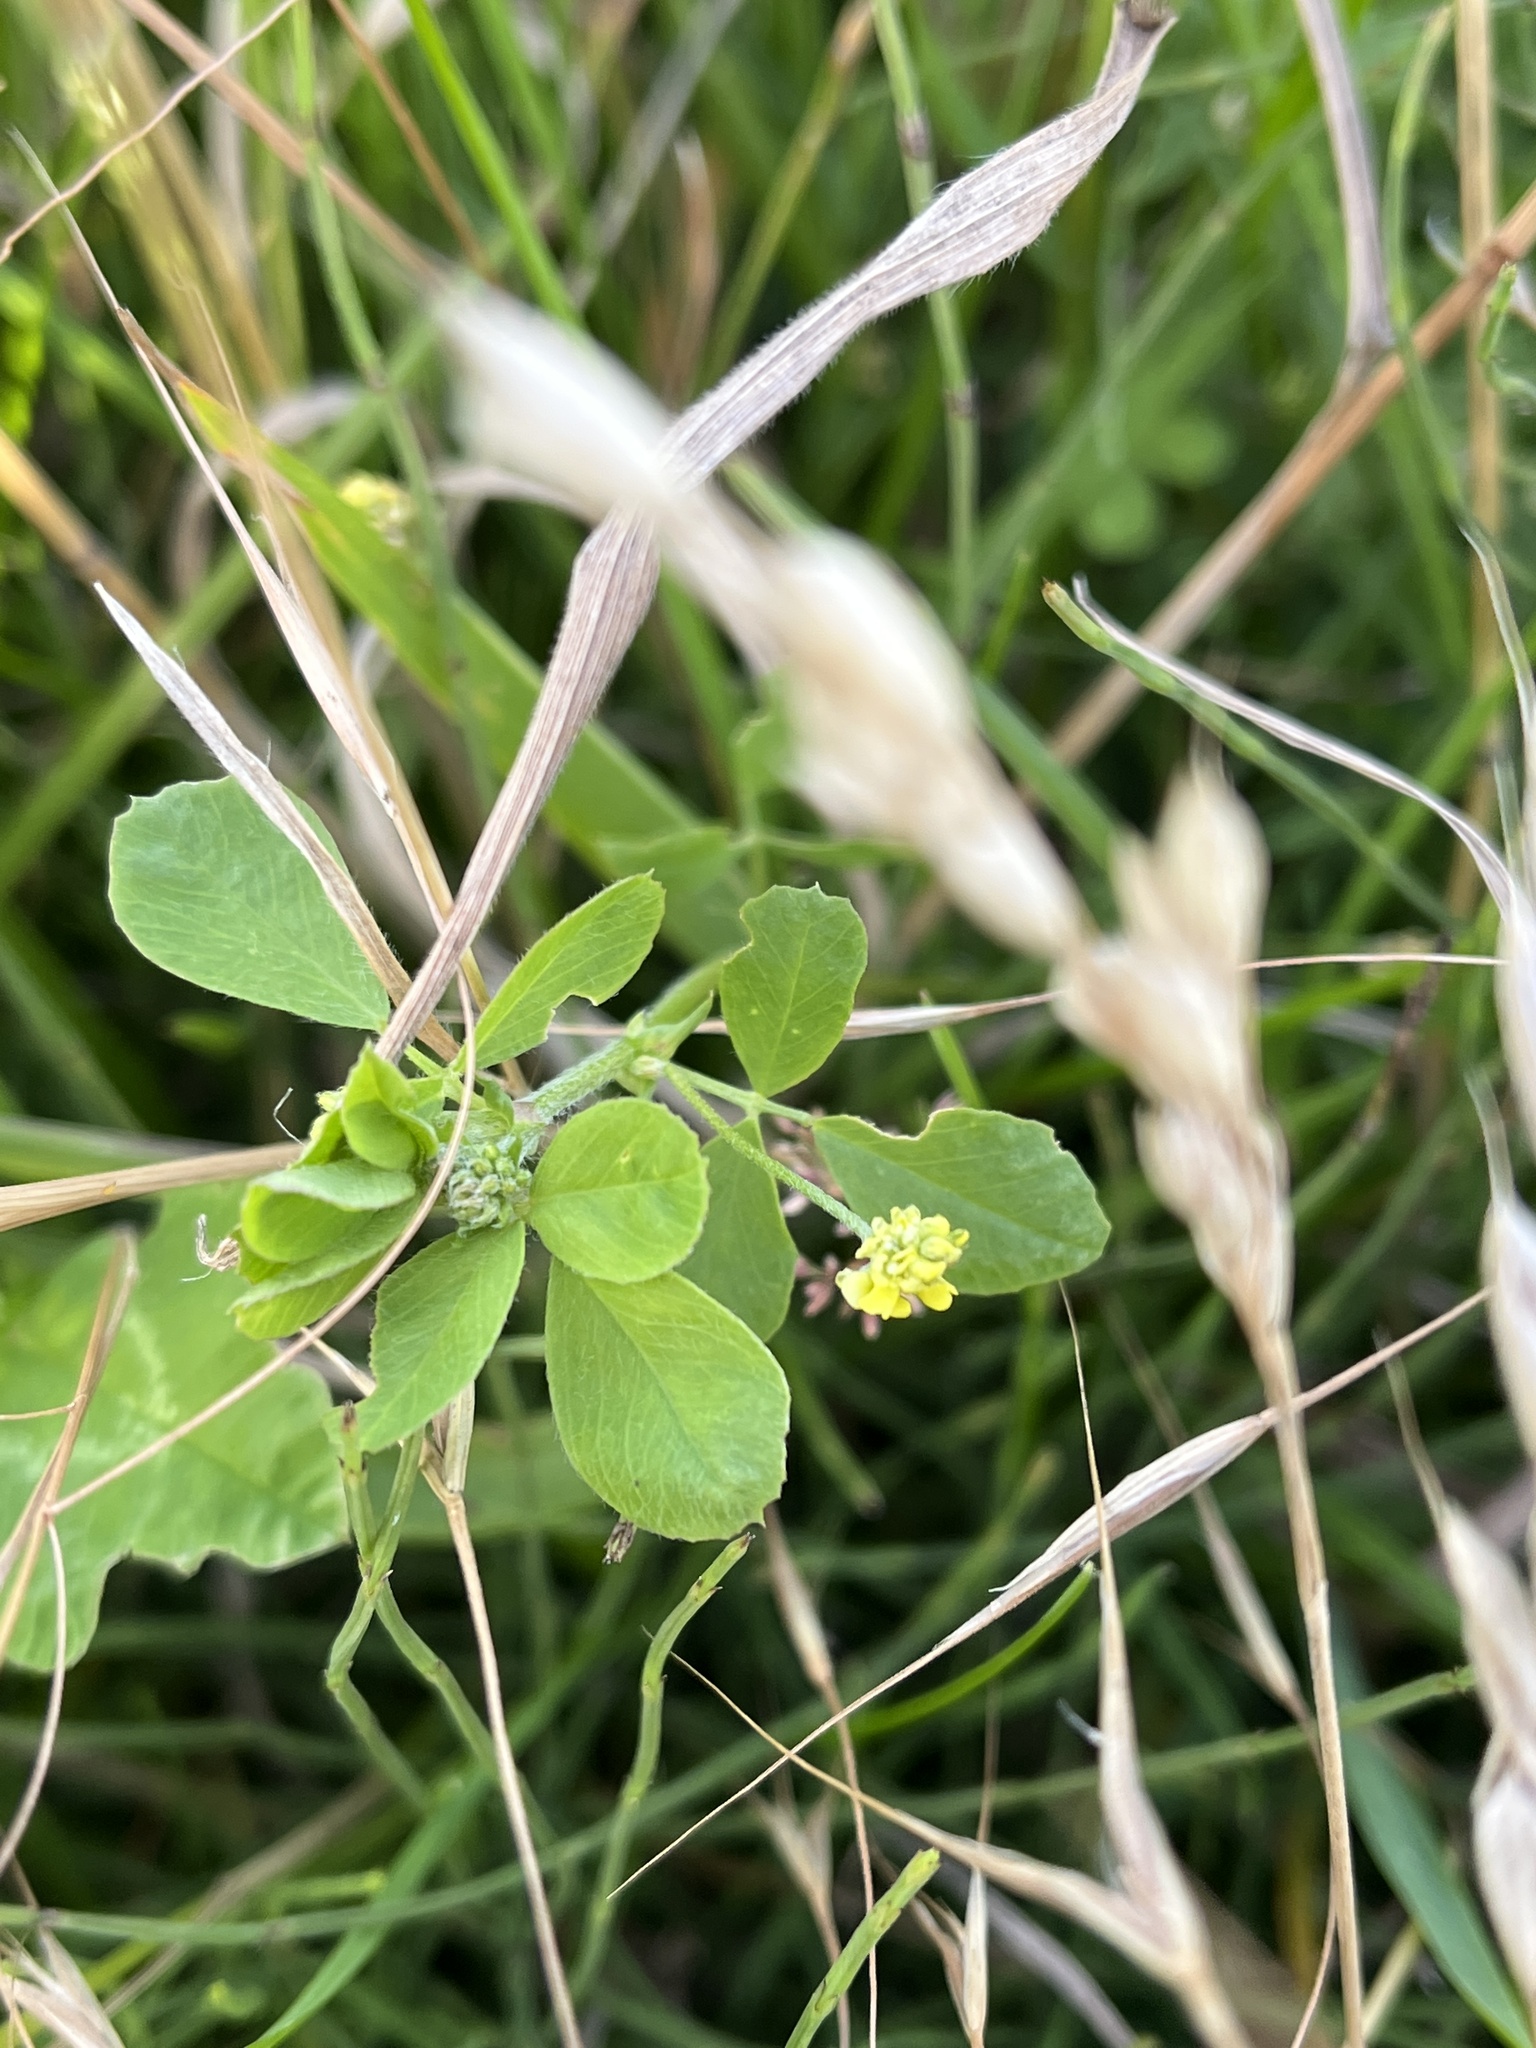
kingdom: Plantae
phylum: Tracheophyta
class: Magnoliopsida
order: Fabales
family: Fabaceae
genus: Medicago
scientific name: Medicago lupulina
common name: Black medick
